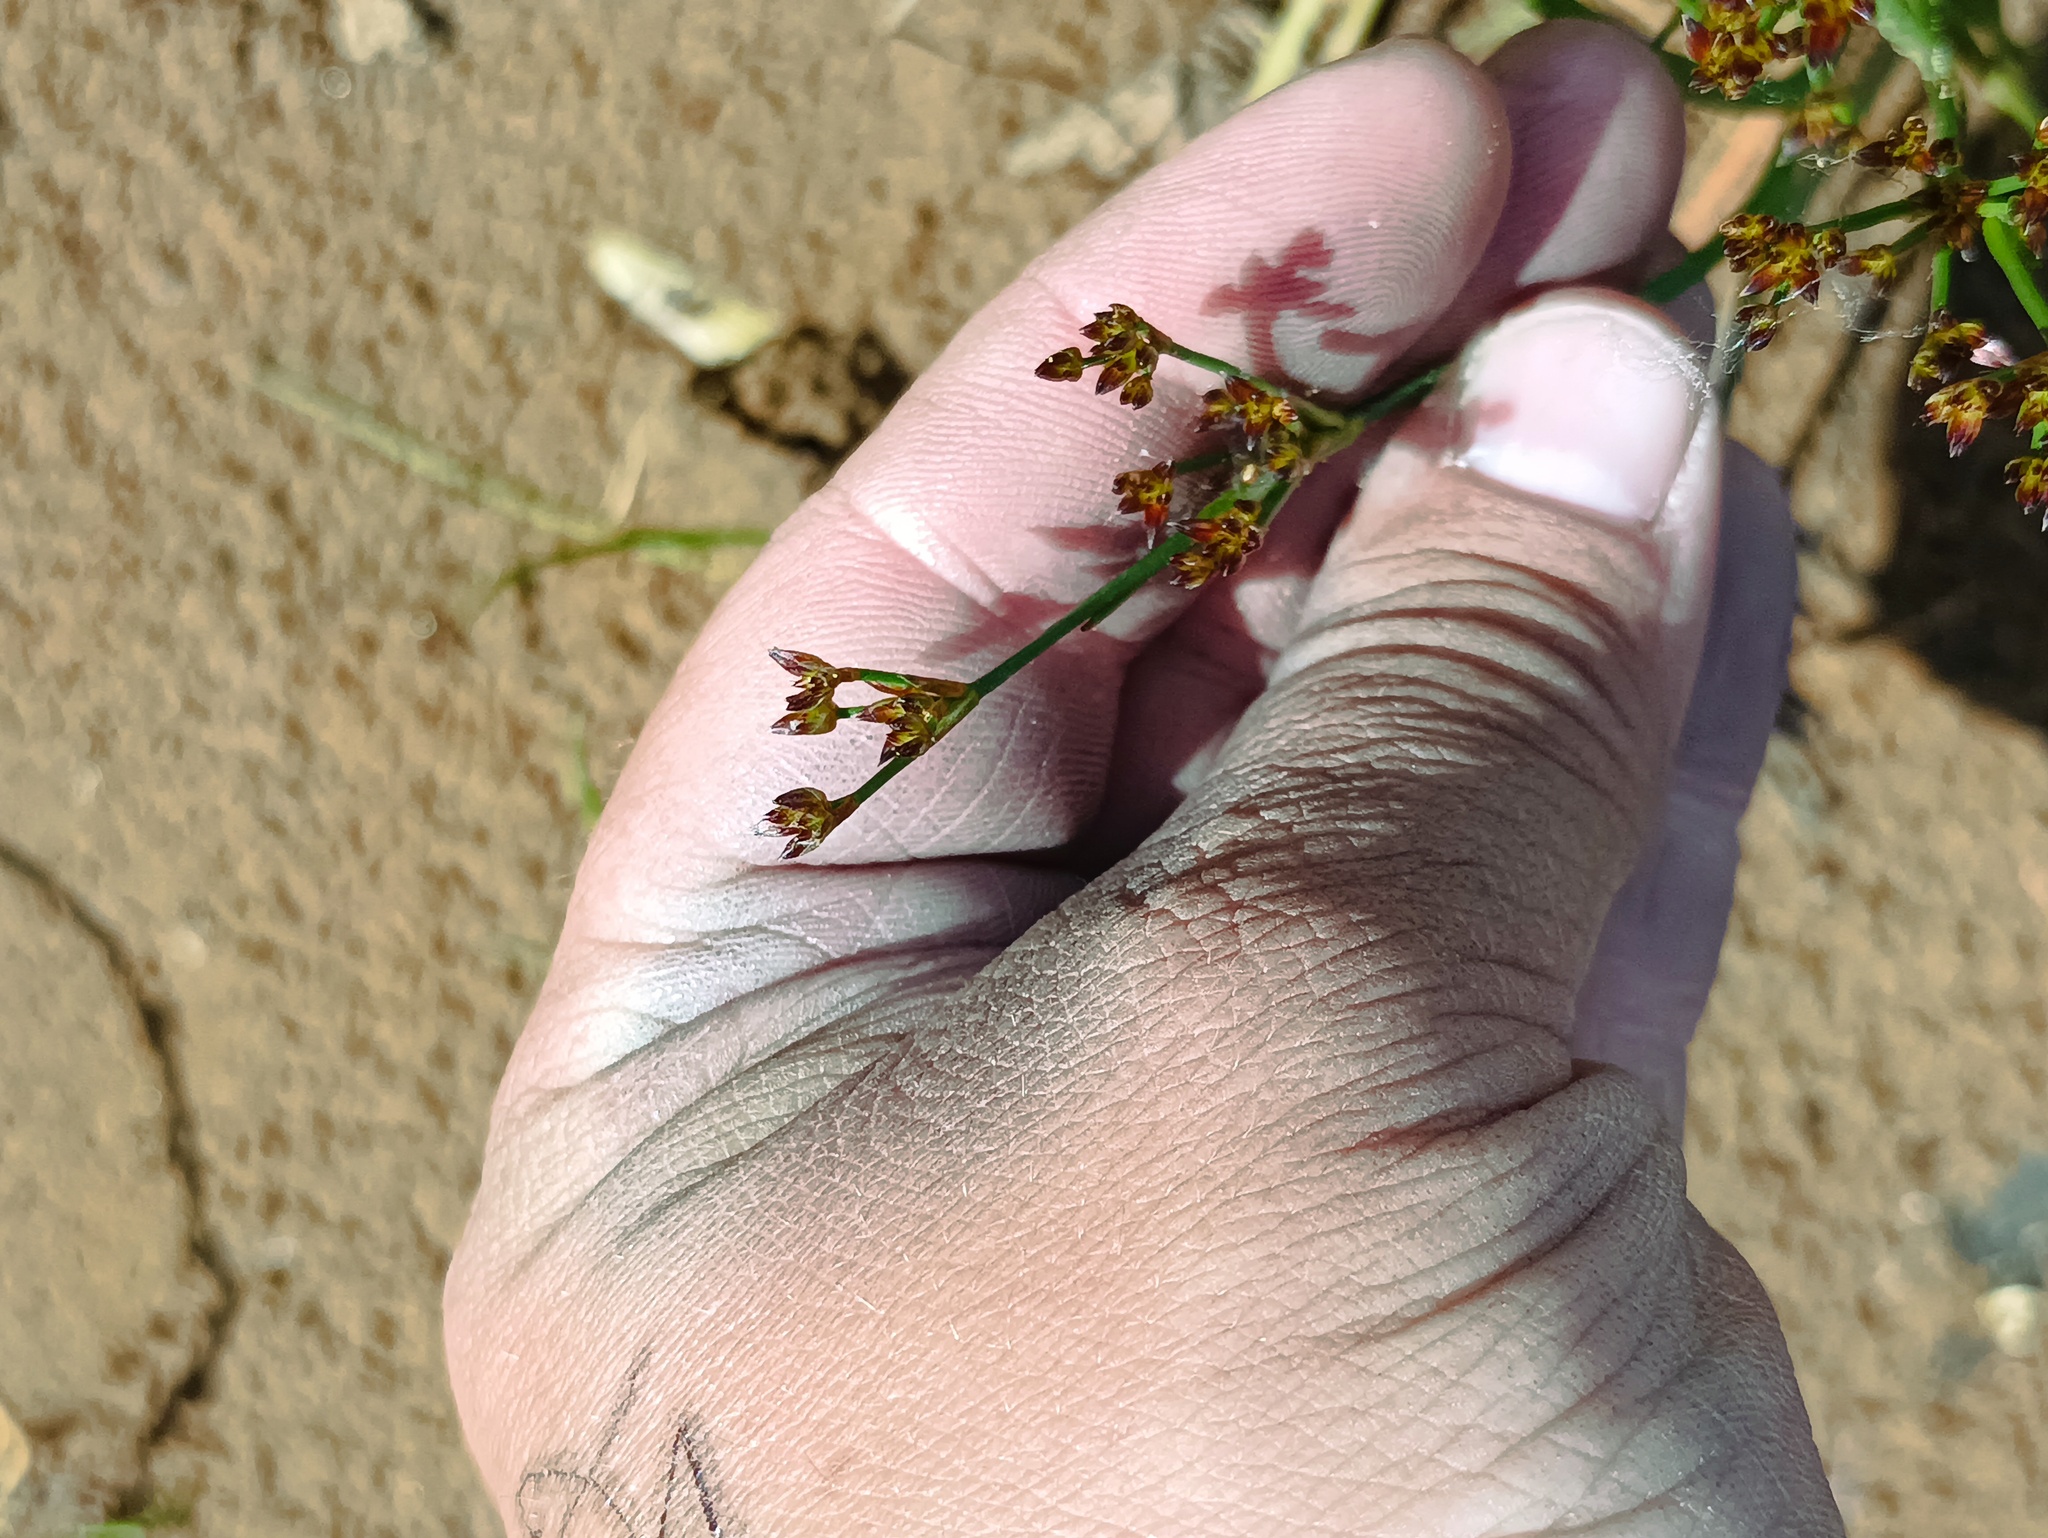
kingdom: Plantae
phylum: Tracheophyta
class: Liliopsida
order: Poales
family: Juncaceae
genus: Juncus
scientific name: Juncus articulatus
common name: Jointed rush
